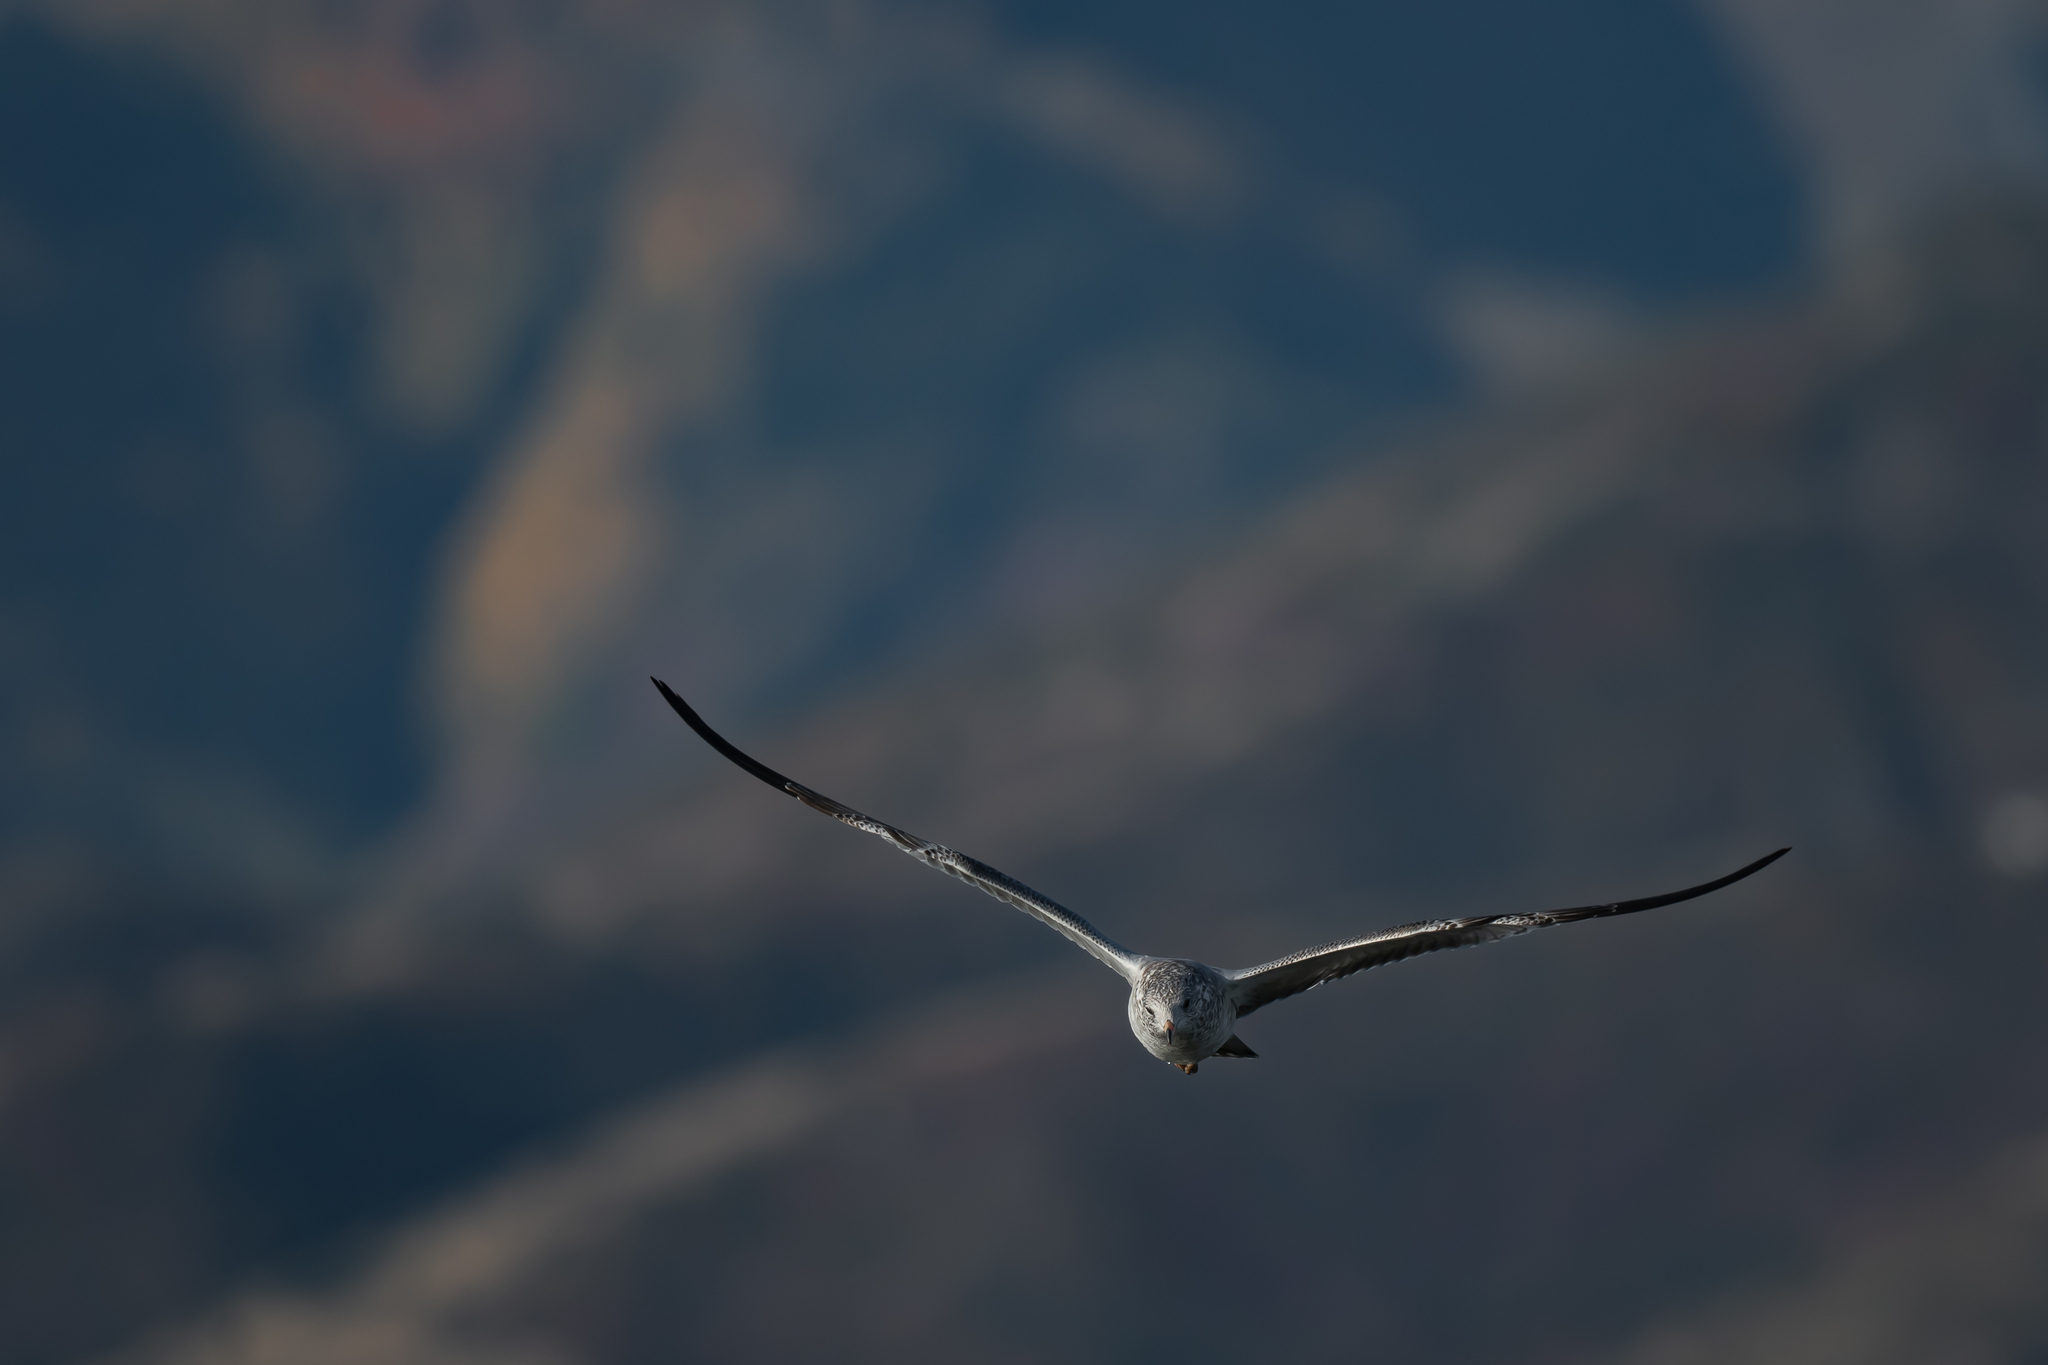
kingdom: Animalia
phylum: Chordata
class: Aves
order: Charadriiformes
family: Laridae
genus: Larus
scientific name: Larus delawarensis
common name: Ring-billed gull
